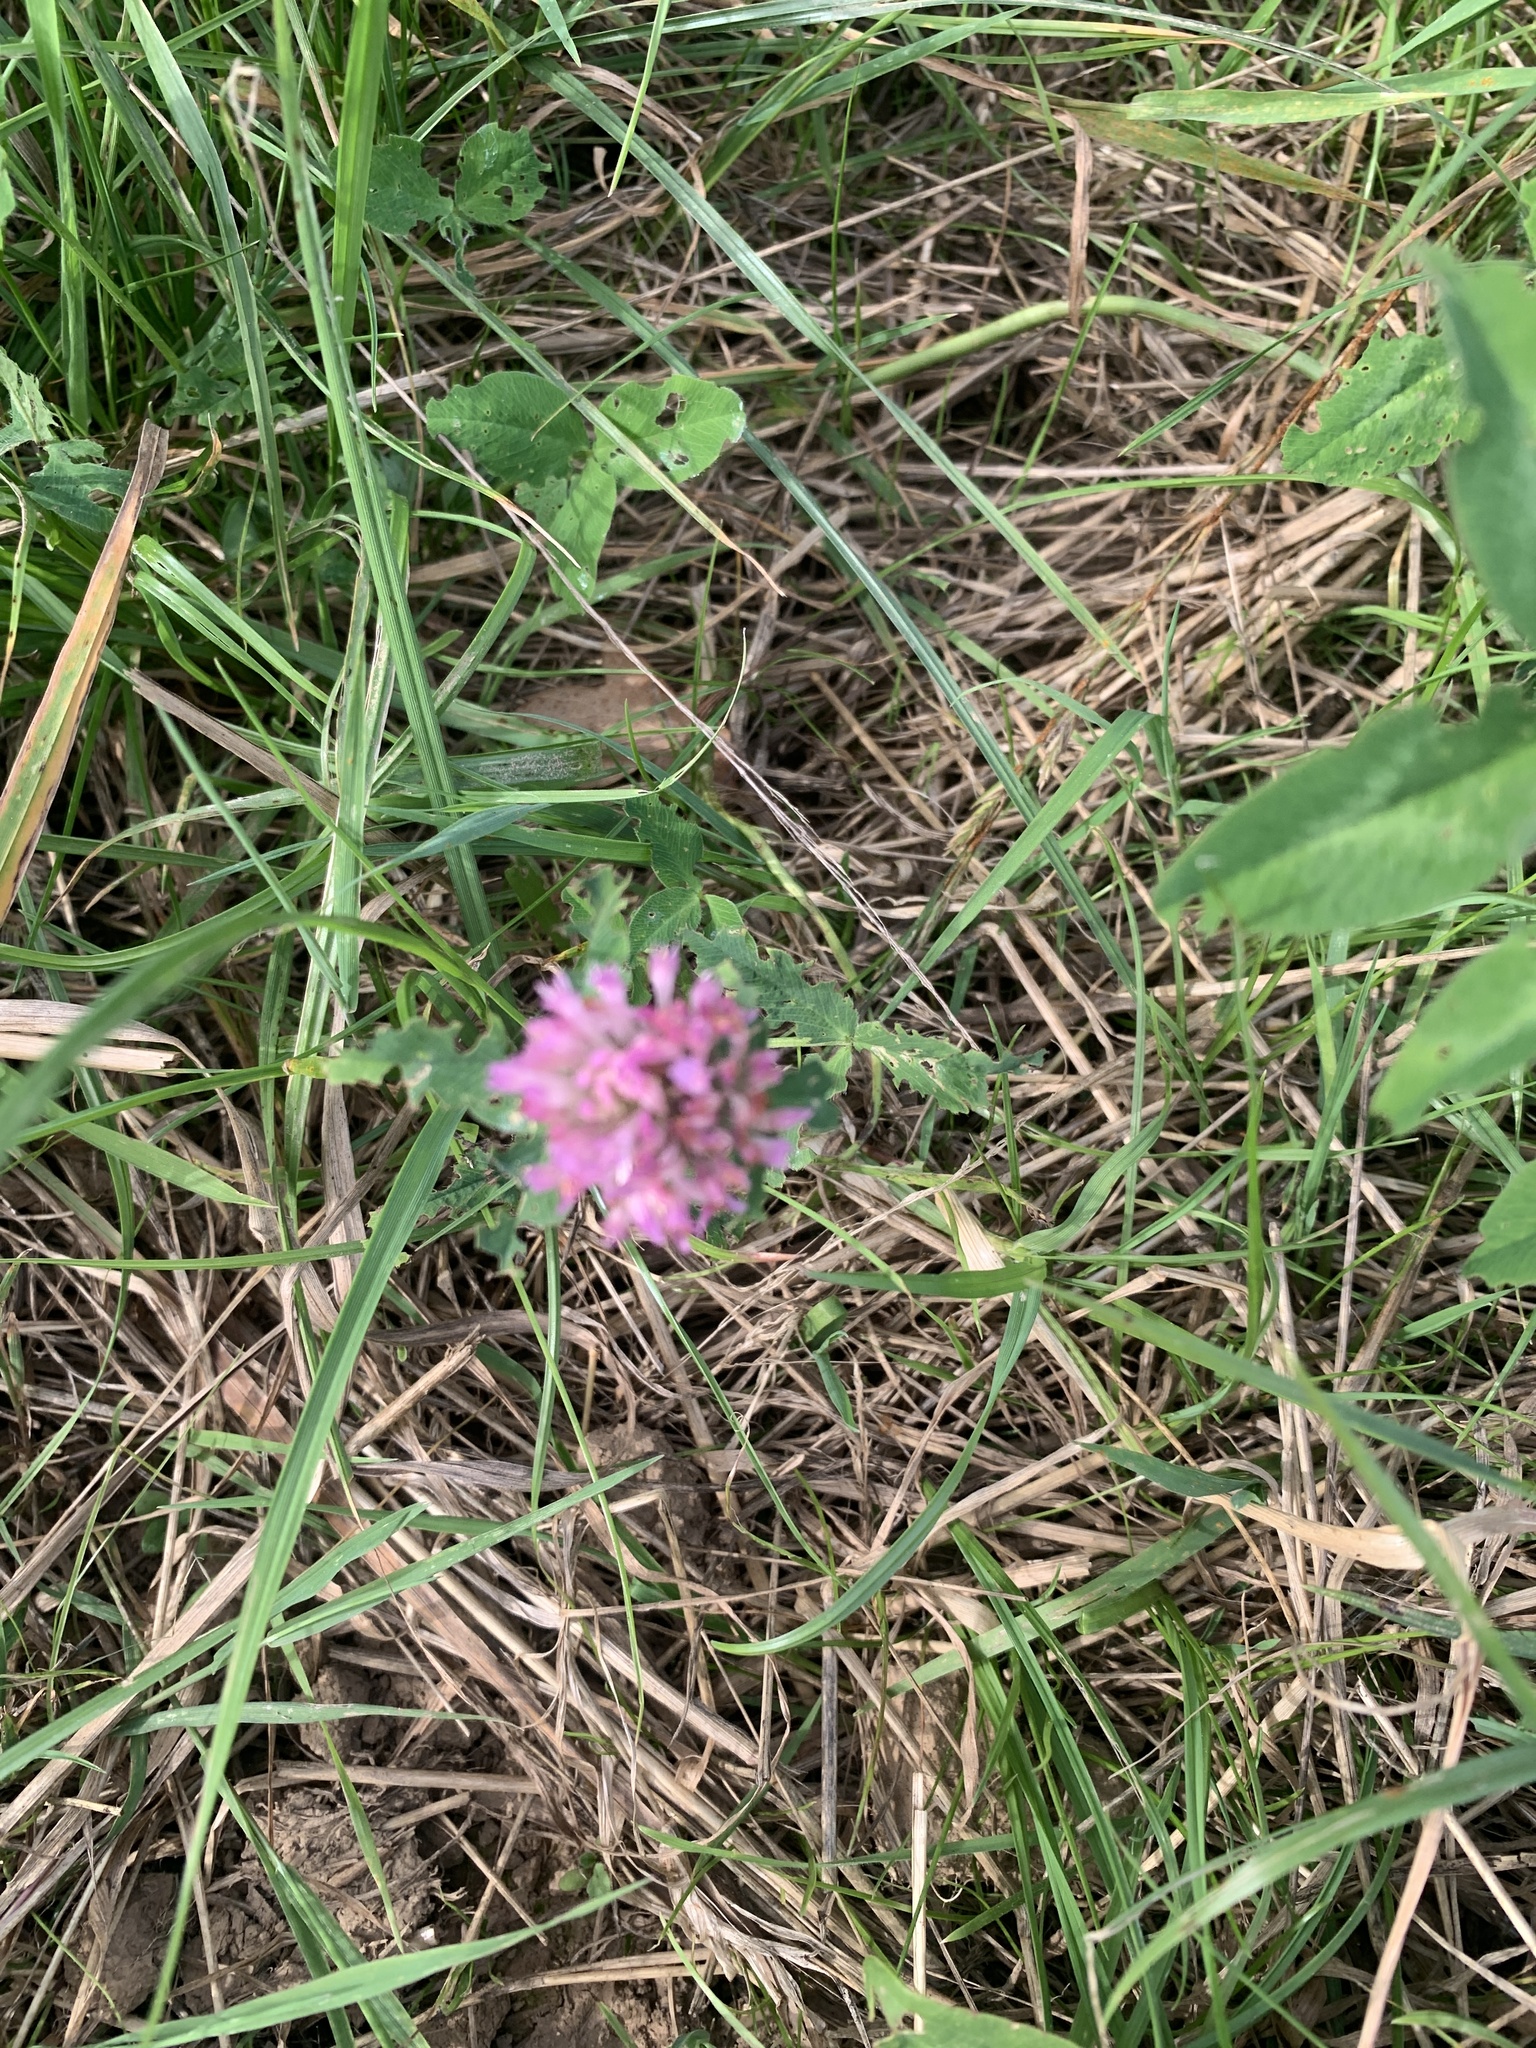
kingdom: Plantae
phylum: Tracheophyta
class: Magnoliopsida
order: Fabales
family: Fabaceae
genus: Trifolium
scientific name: Trifolium pratense
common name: Red clover
